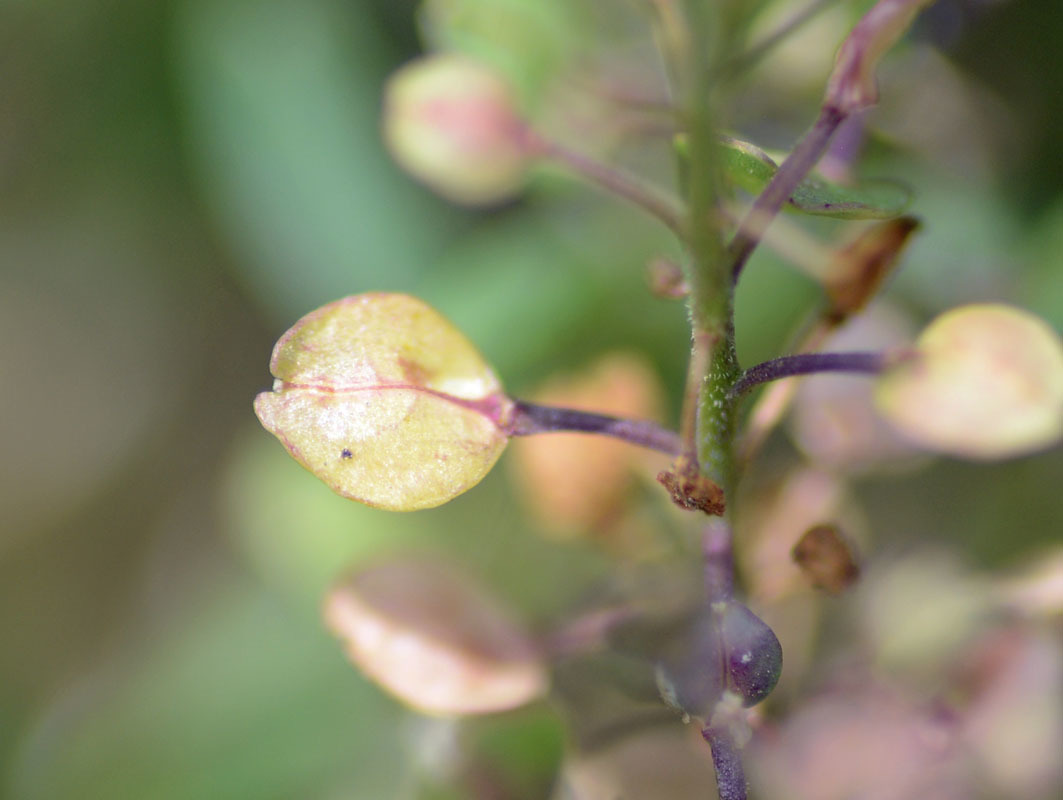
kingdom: Plantae
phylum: Tracheophyta
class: Magnoliopsida
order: Brassicales
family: Brassicaceae
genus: Lepidium
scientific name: Lepidium virginicum
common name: Least pepperwort
